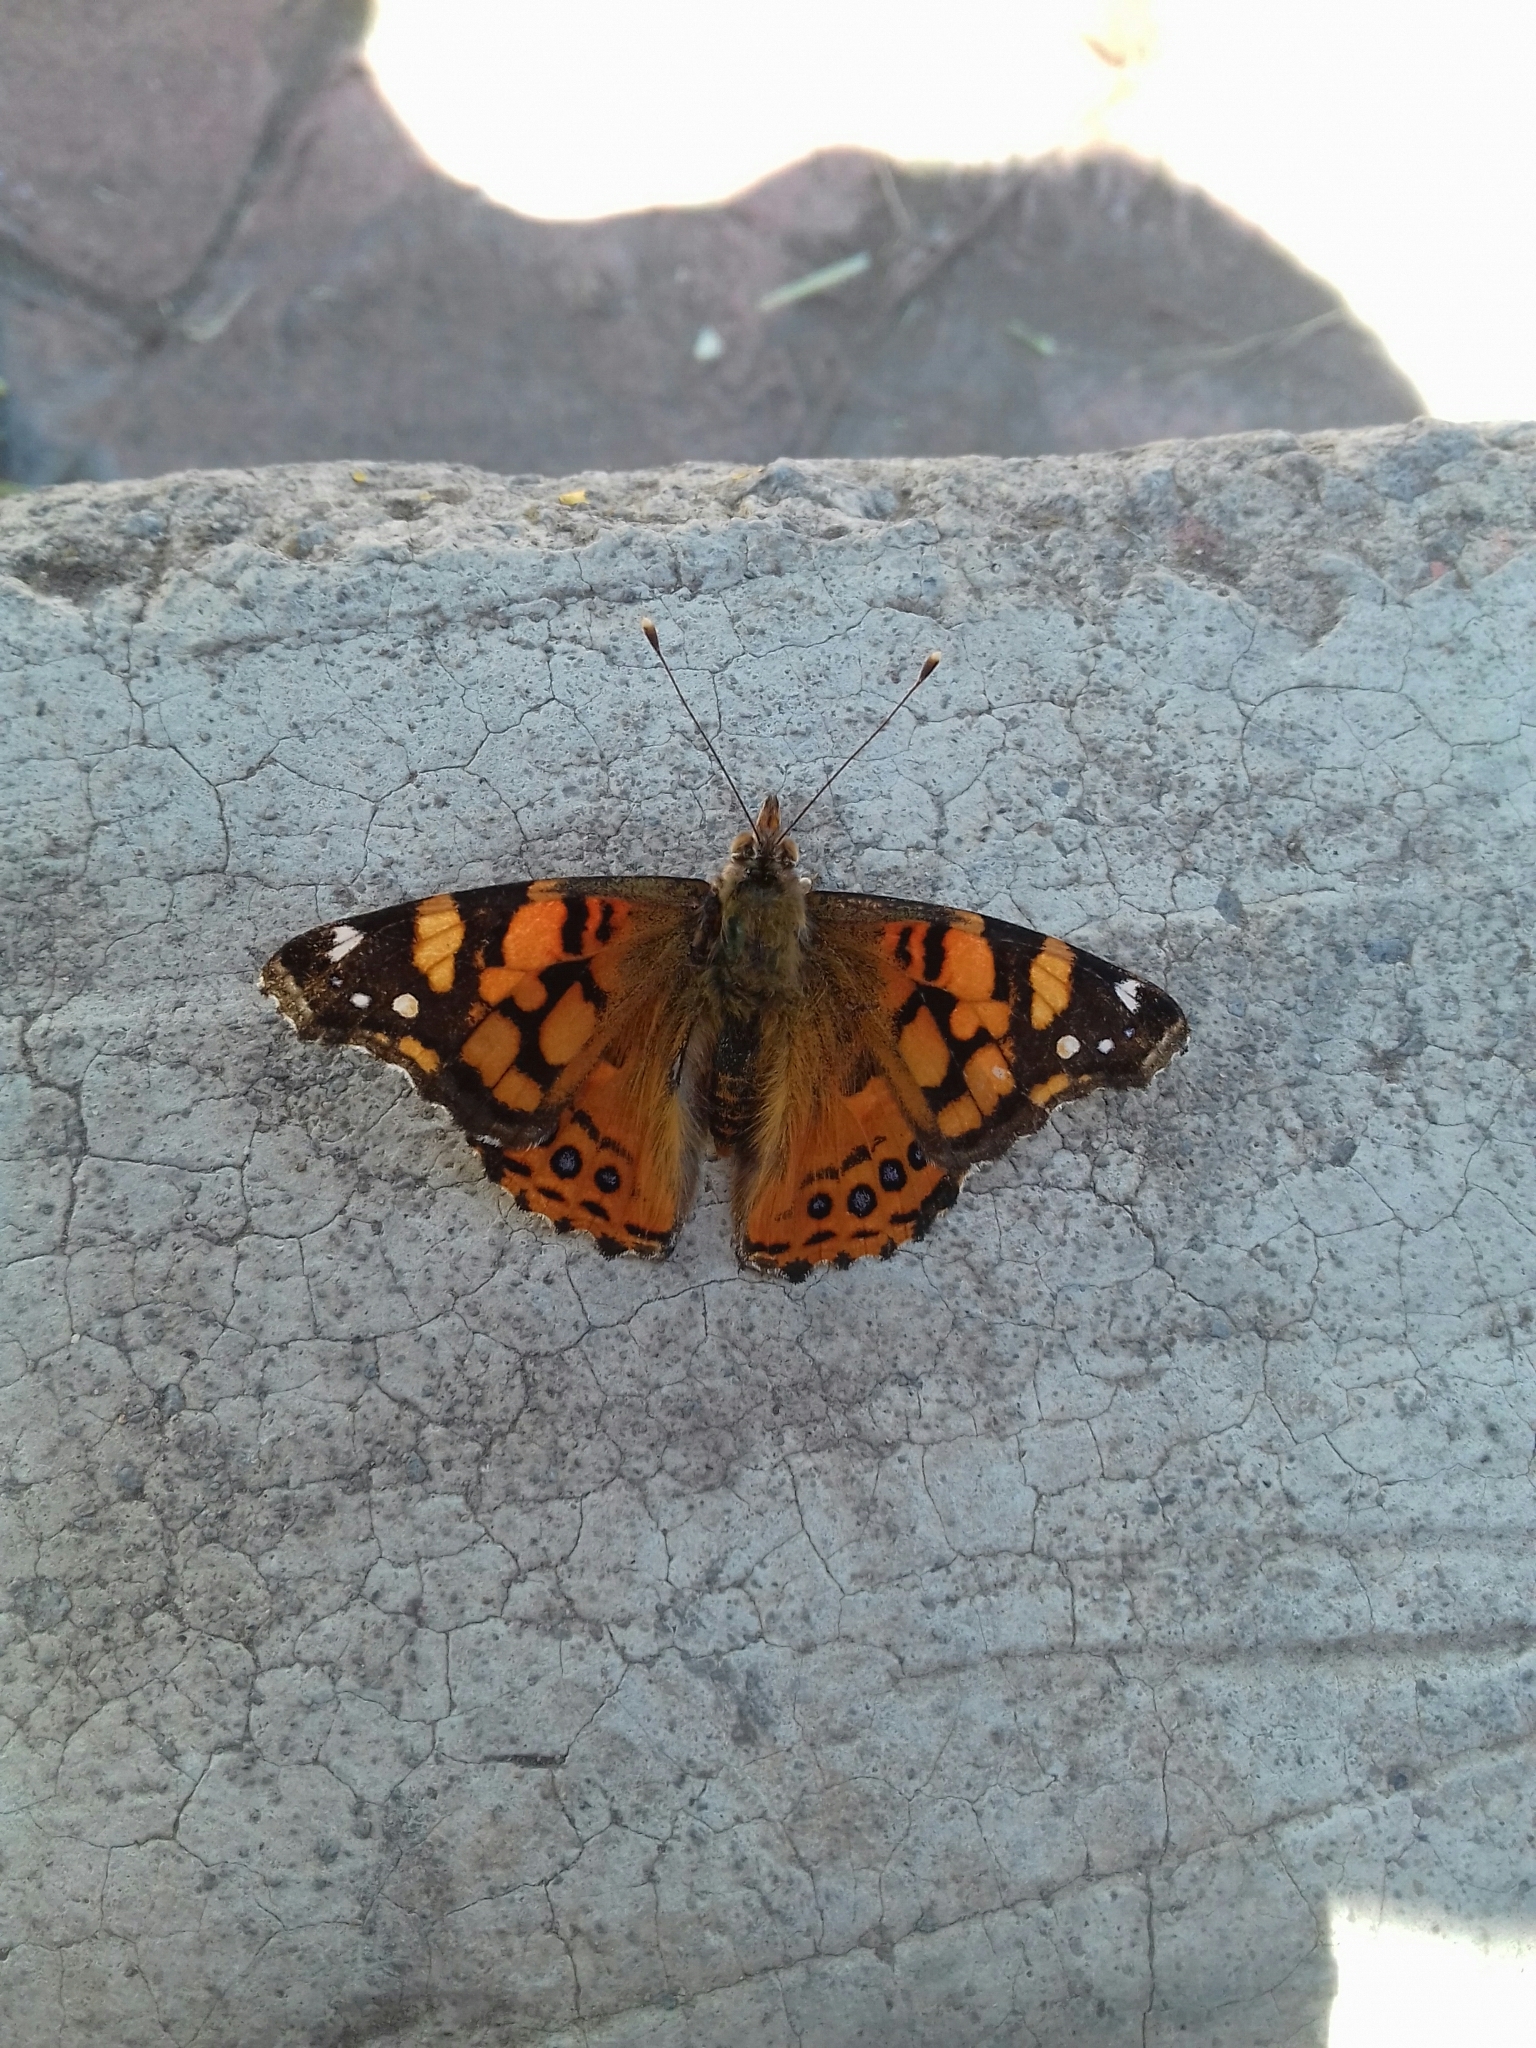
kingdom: Animalia
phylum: Arthropoda
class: Insecta
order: Lepidoptera
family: Nymphalidae
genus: Vanessa
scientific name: Vanessa annabella
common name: West coast lady
